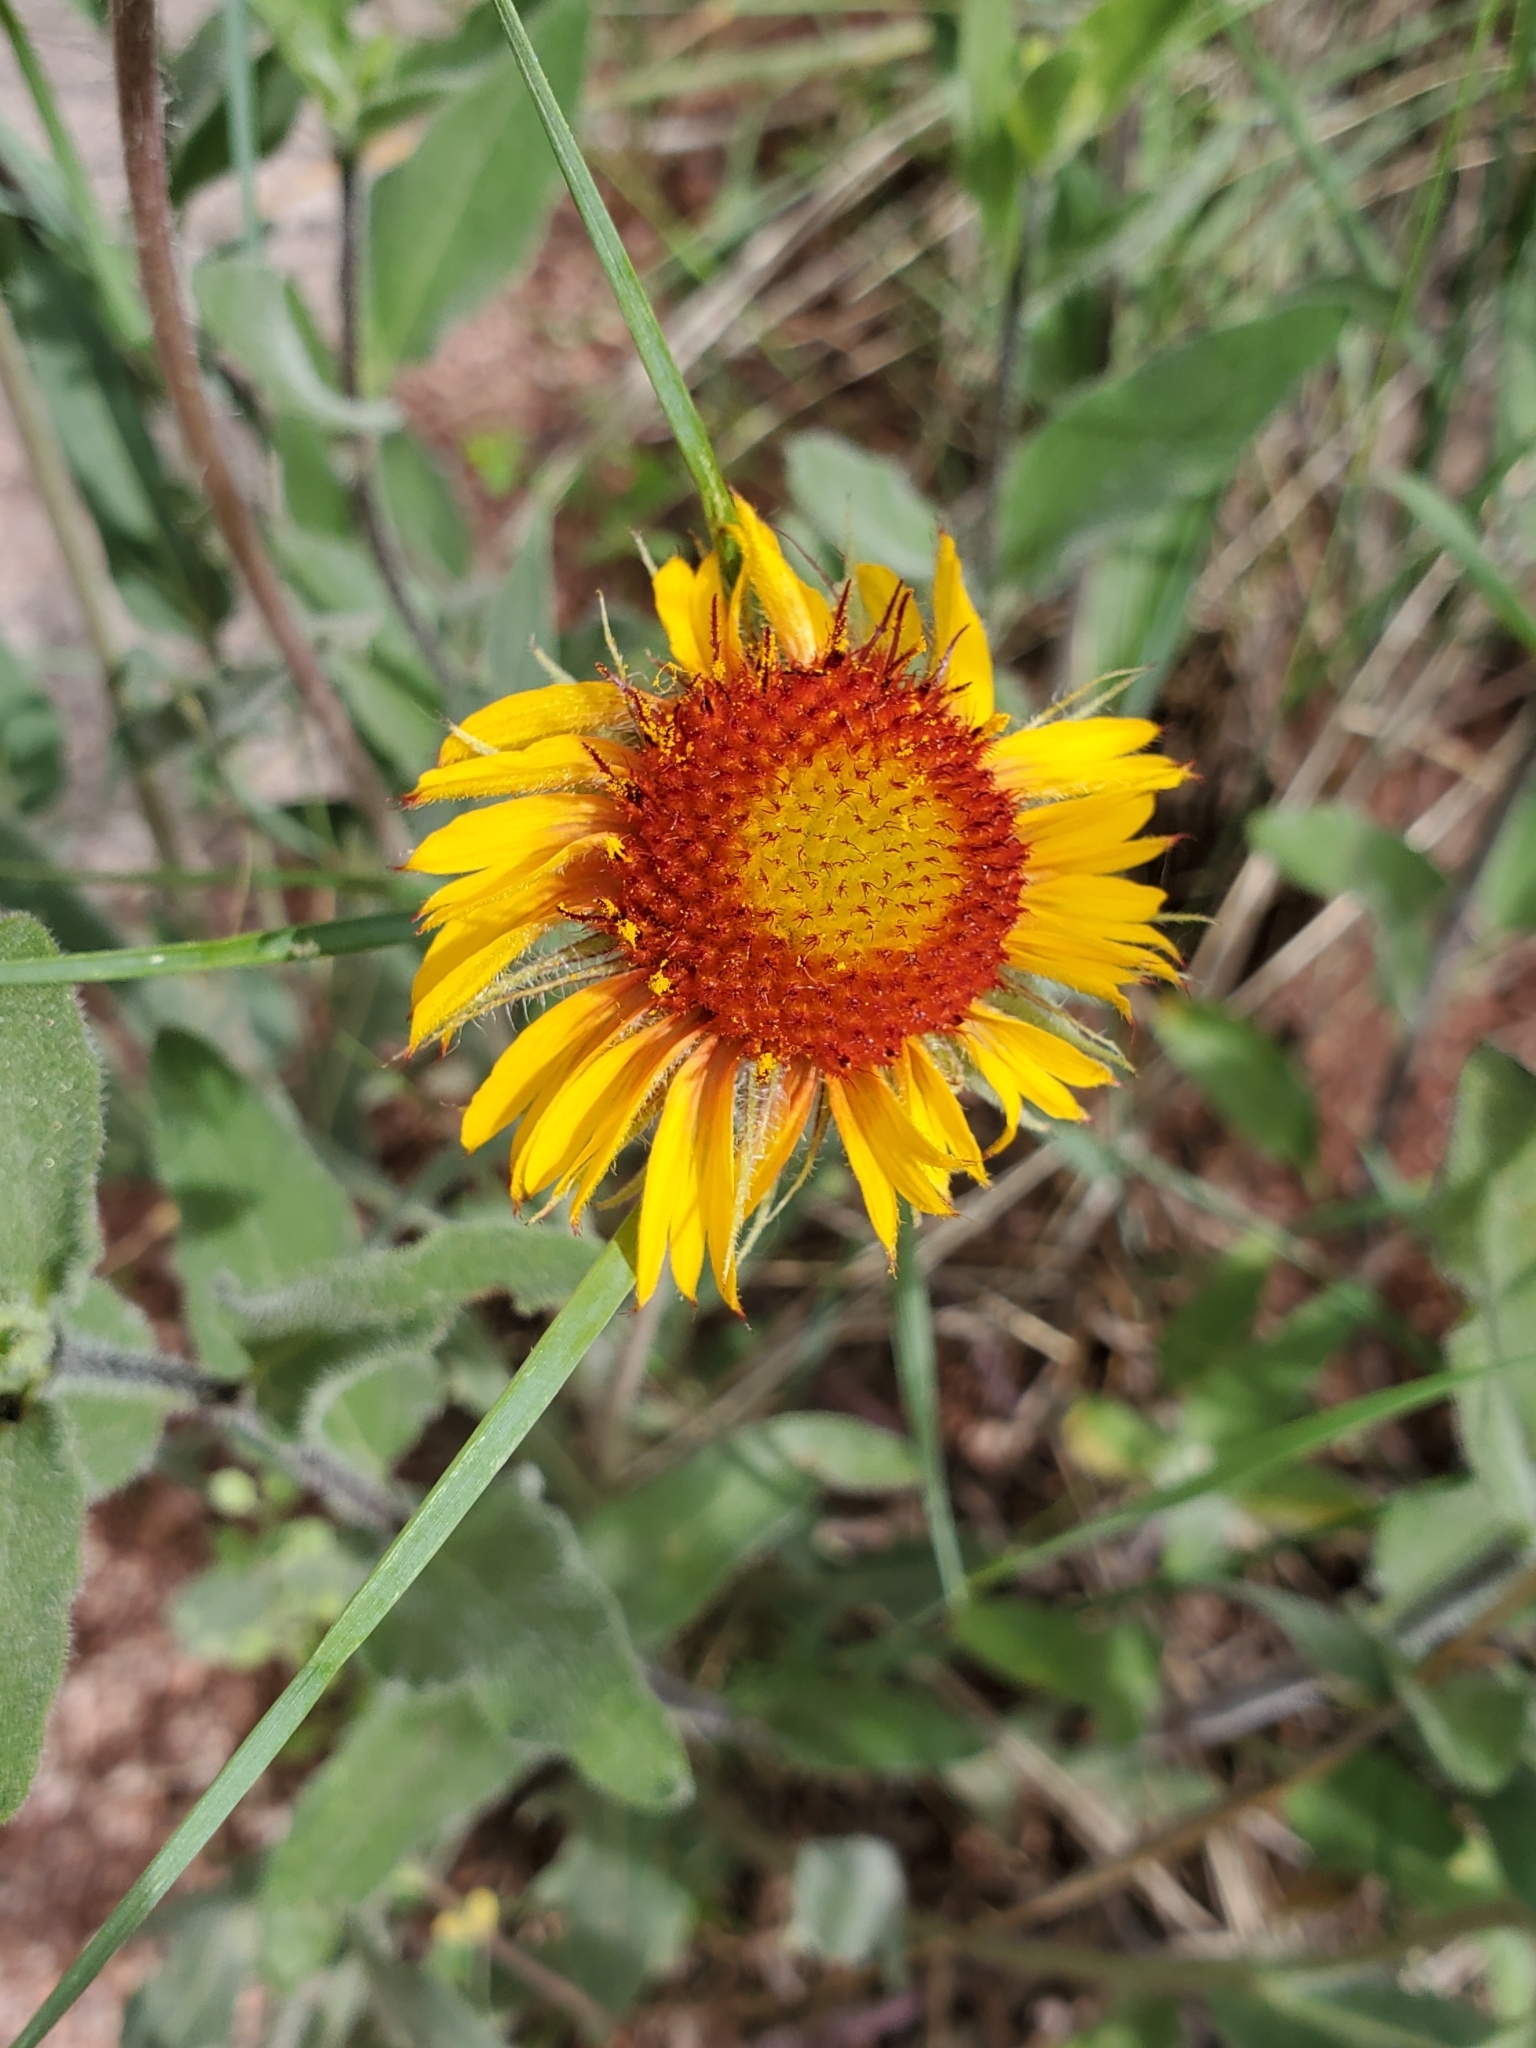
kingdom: Plantae
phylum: Tracheophyta
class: Magnoliopsida
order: Asterales
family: Asteraceae
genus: Gaillardia
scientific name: Gaillardia aristata
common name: Blanket-flower
